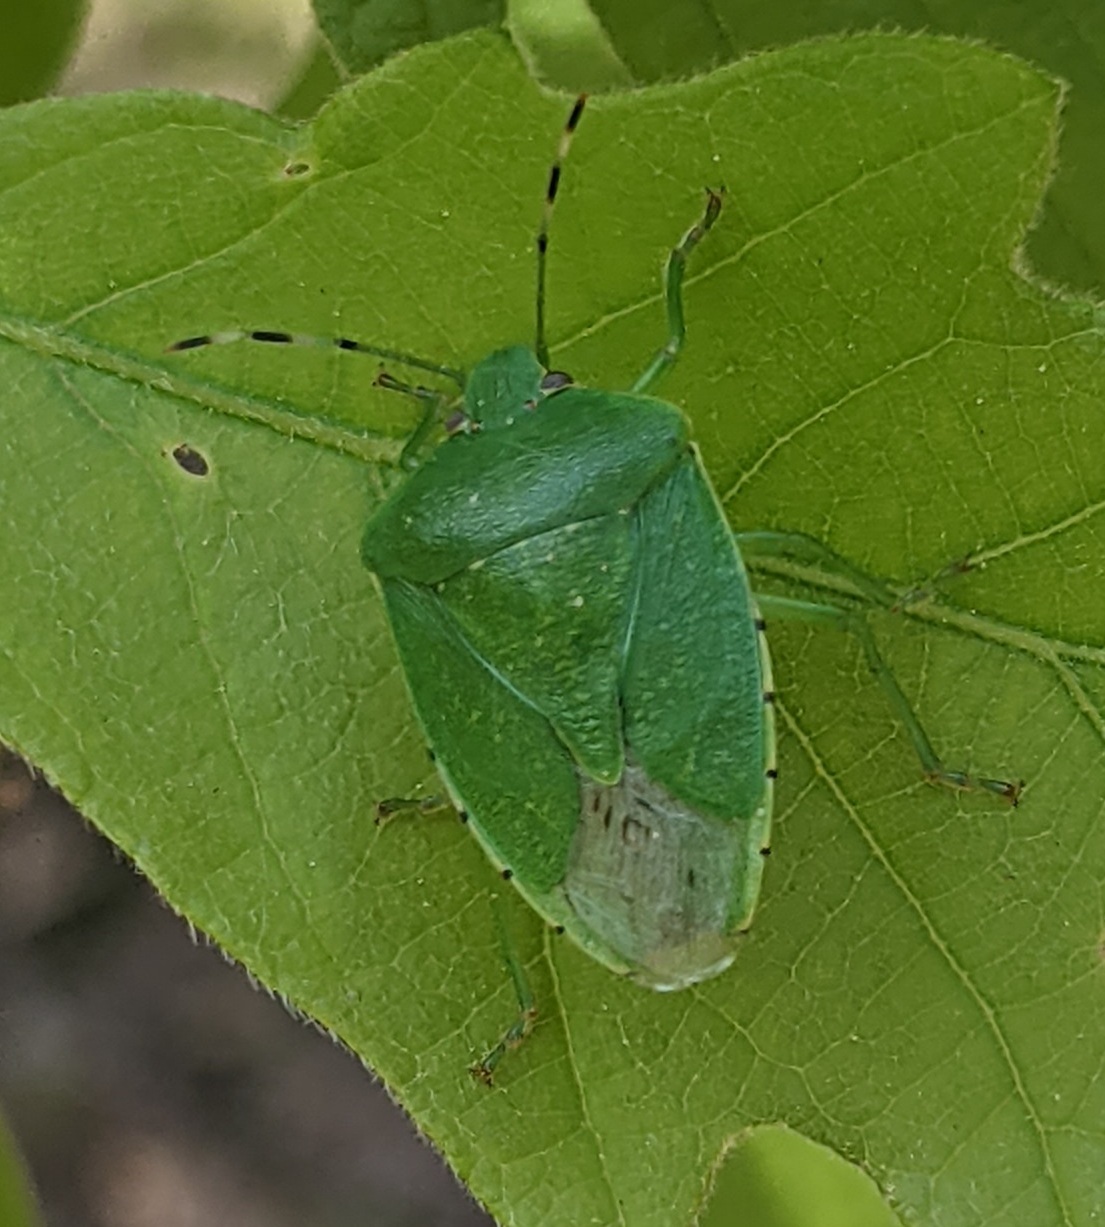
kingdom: Animalia
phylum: Arthropoda
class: Insecta
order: Hemiptera
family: Pentatomidae
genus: Chinavia
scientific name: Chinavia hilaris
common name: Green stink bug
